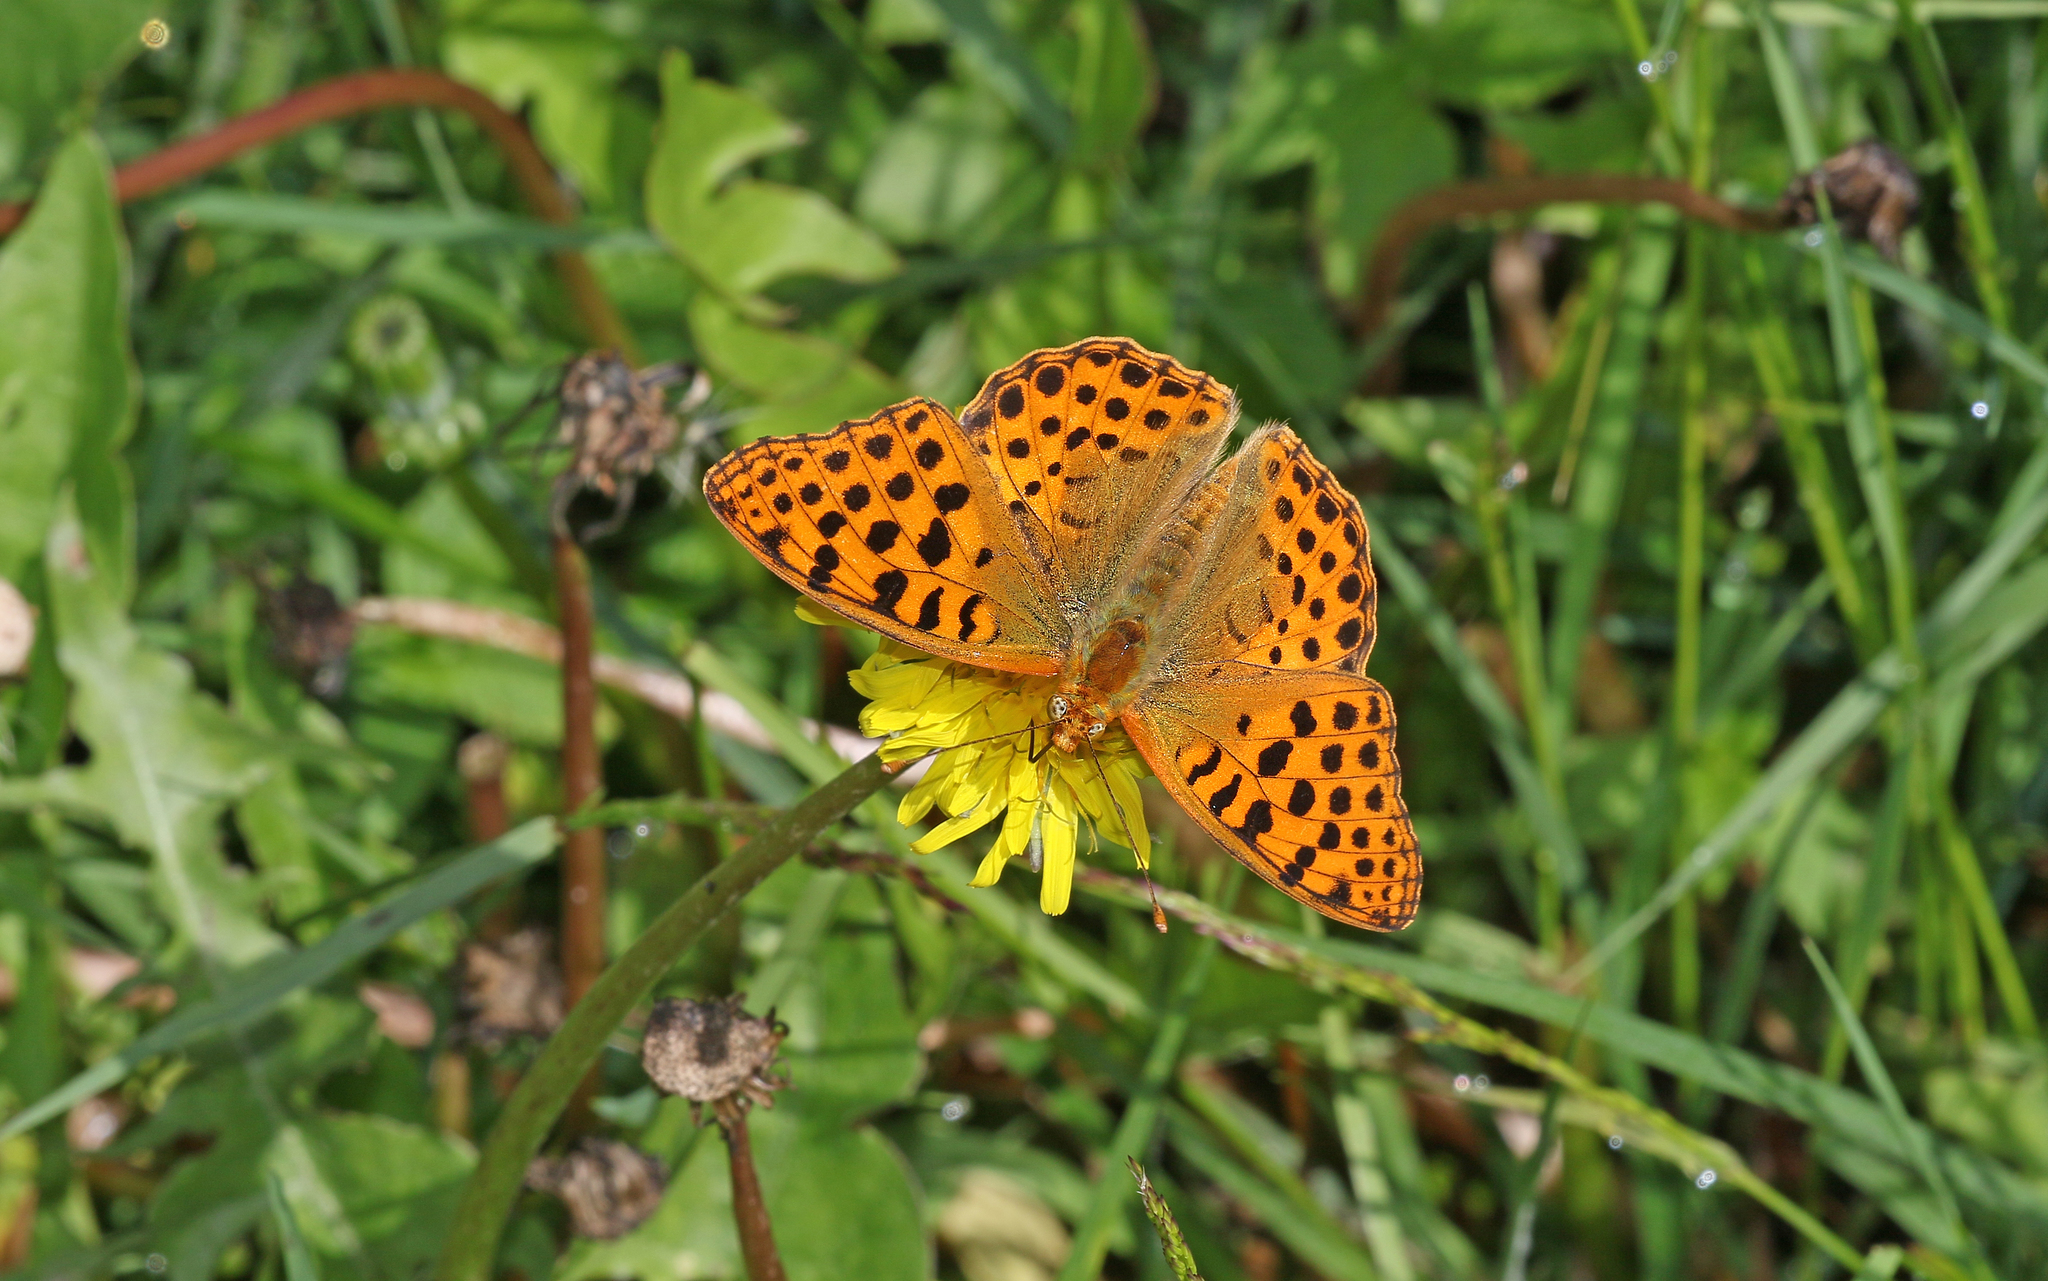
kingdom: Animalia
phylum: Arthropoda
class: Insecta
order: Lepidoptera
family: Nymphalidae
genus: Issoria
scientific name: Issoria lathonia
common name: Queen of spain fritillary
